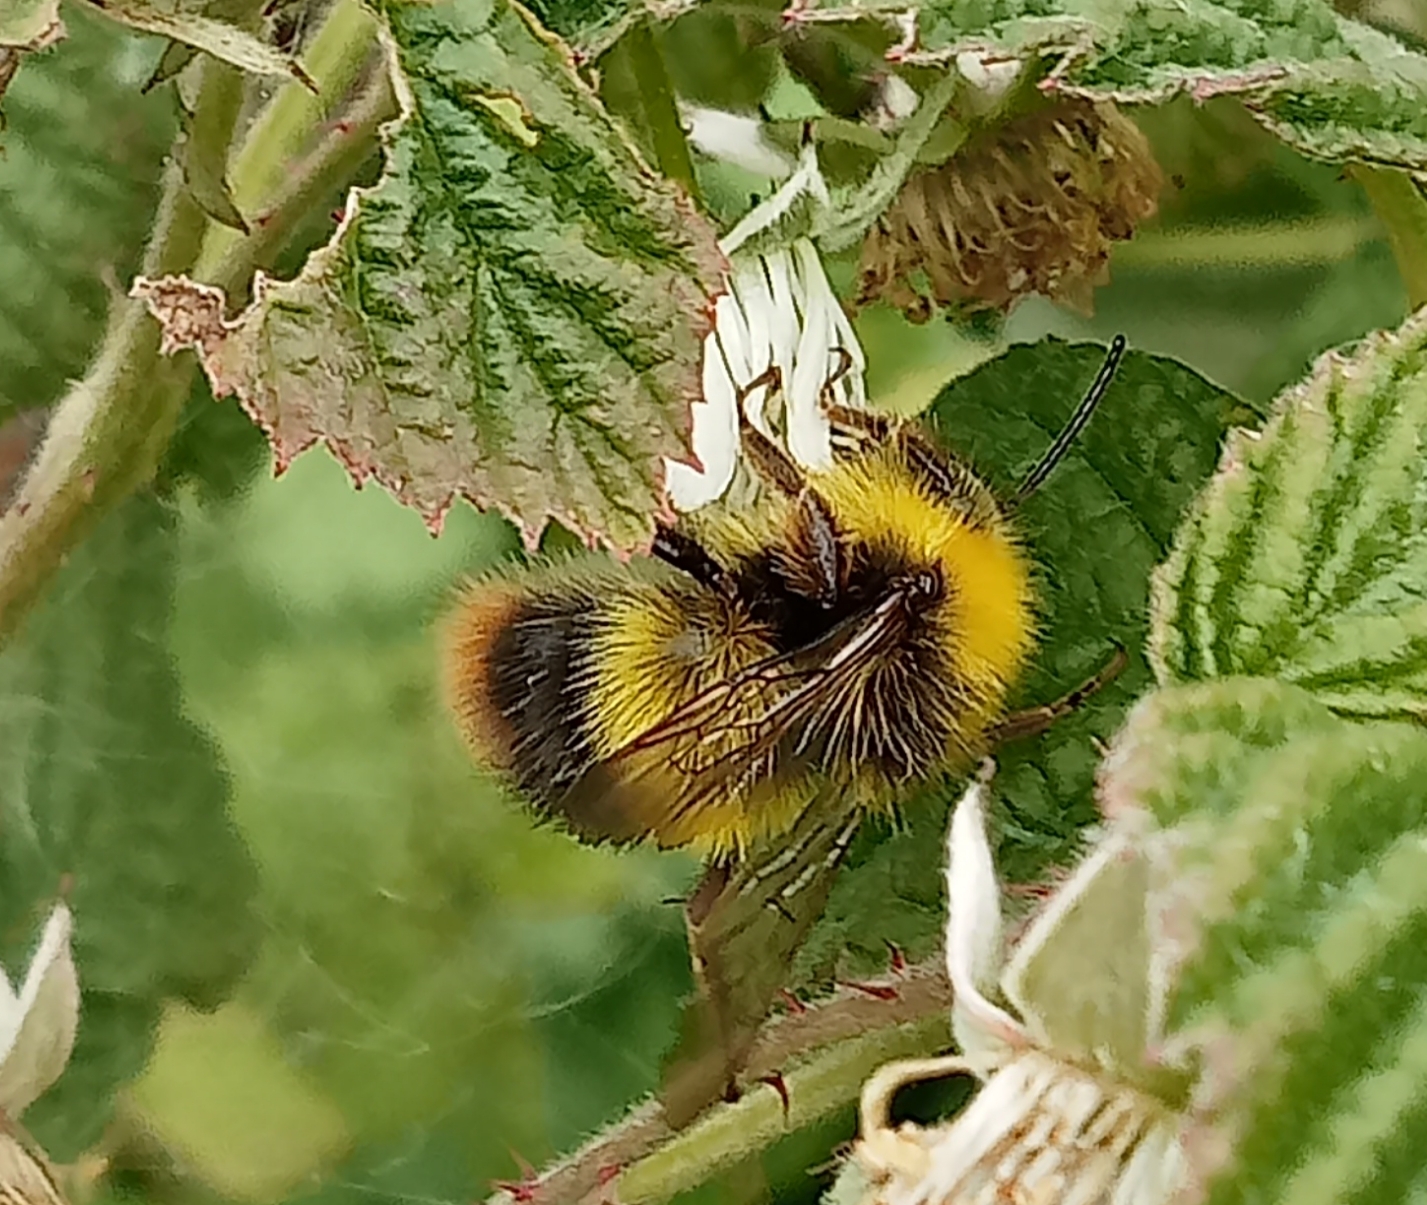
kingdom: Animalia
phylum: Arthropoda
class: Insecta
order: Hymenoptera
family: Apidae
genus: Bombus
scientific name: Bombus pratorum
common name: Early humble-bee
